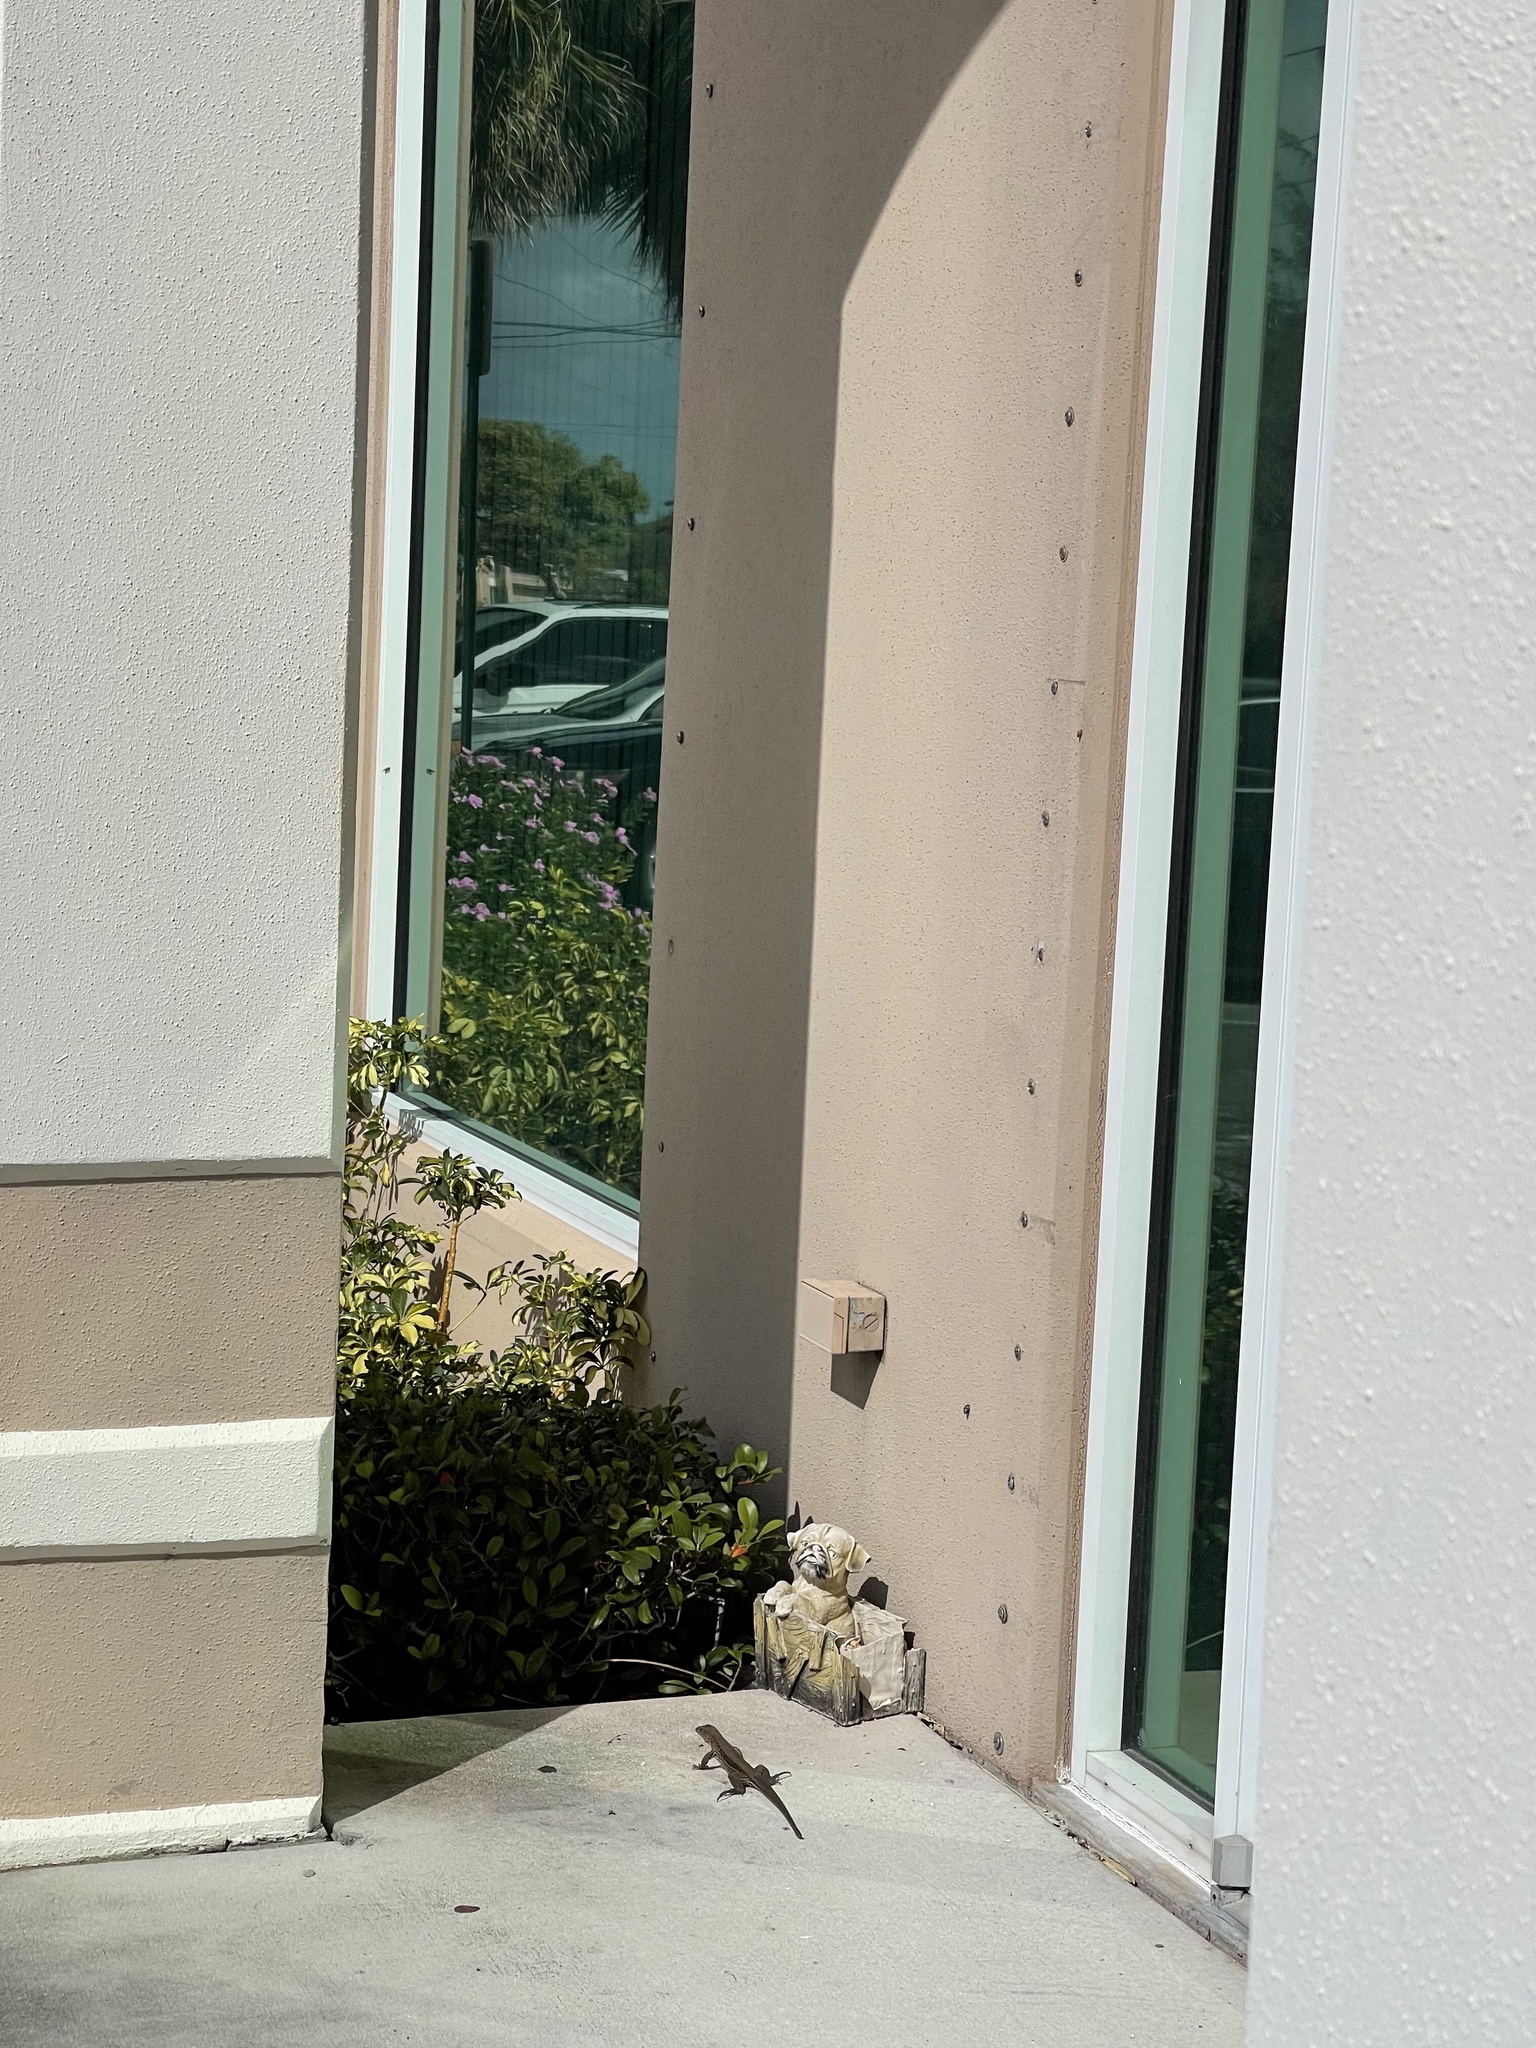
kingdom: Animalia
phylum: Chordata
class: Squamata
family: Teiidae
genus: Ameiva
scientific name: Ameiva ameiva
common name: Giant ameiva
